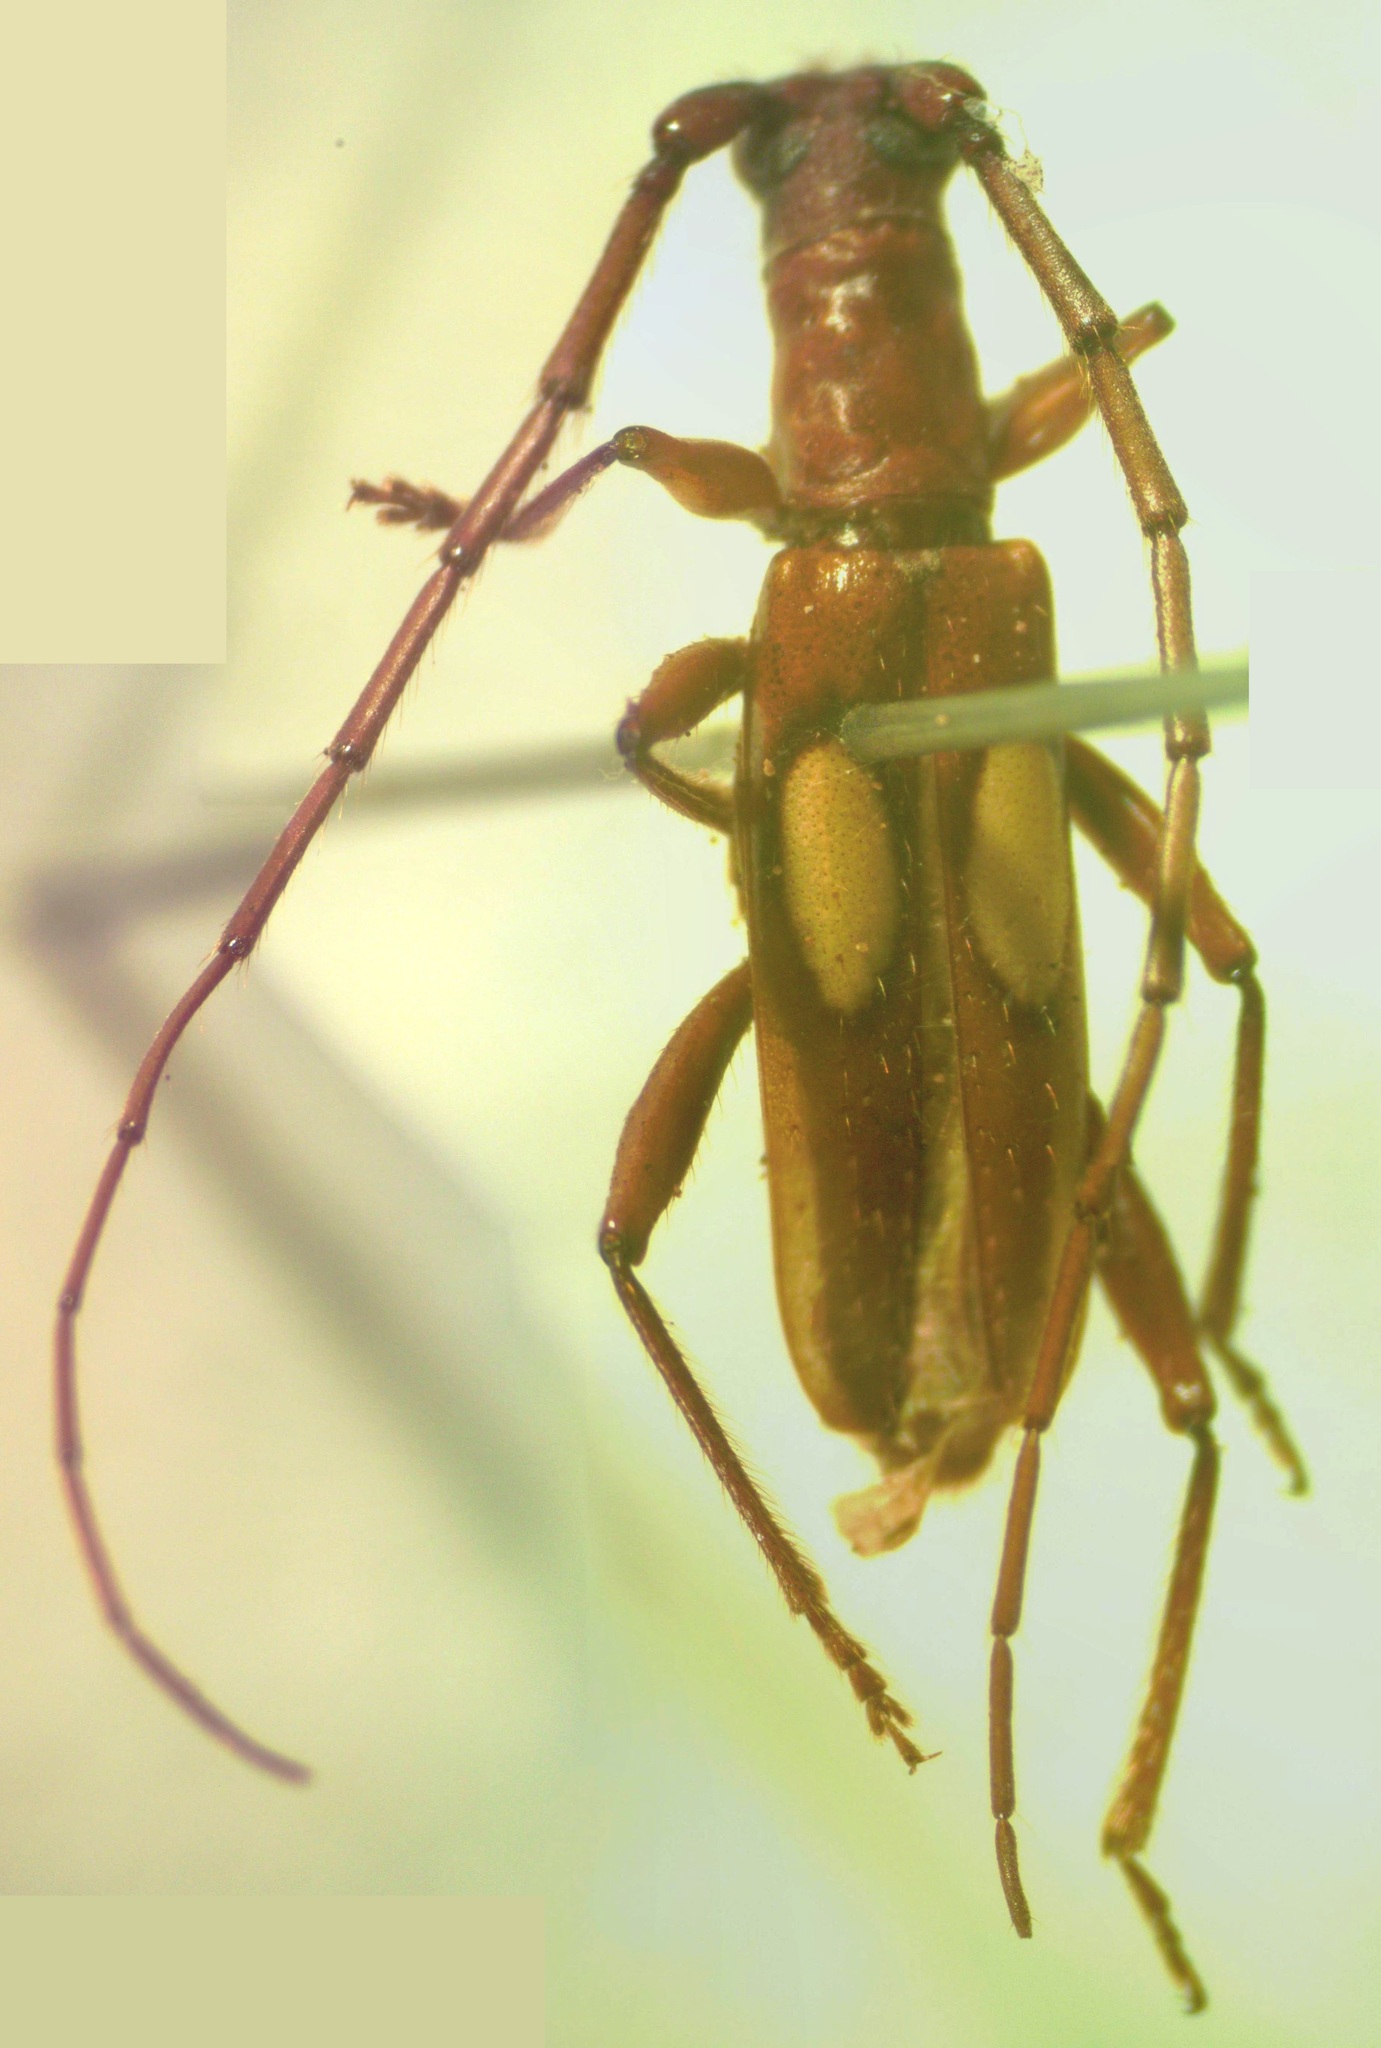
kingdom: Animalia
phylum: Arthropoda
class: Insecta
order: Coleoptera
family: Cerambycidae
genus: Diasporidion
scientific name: Diasporidion duplicatum
